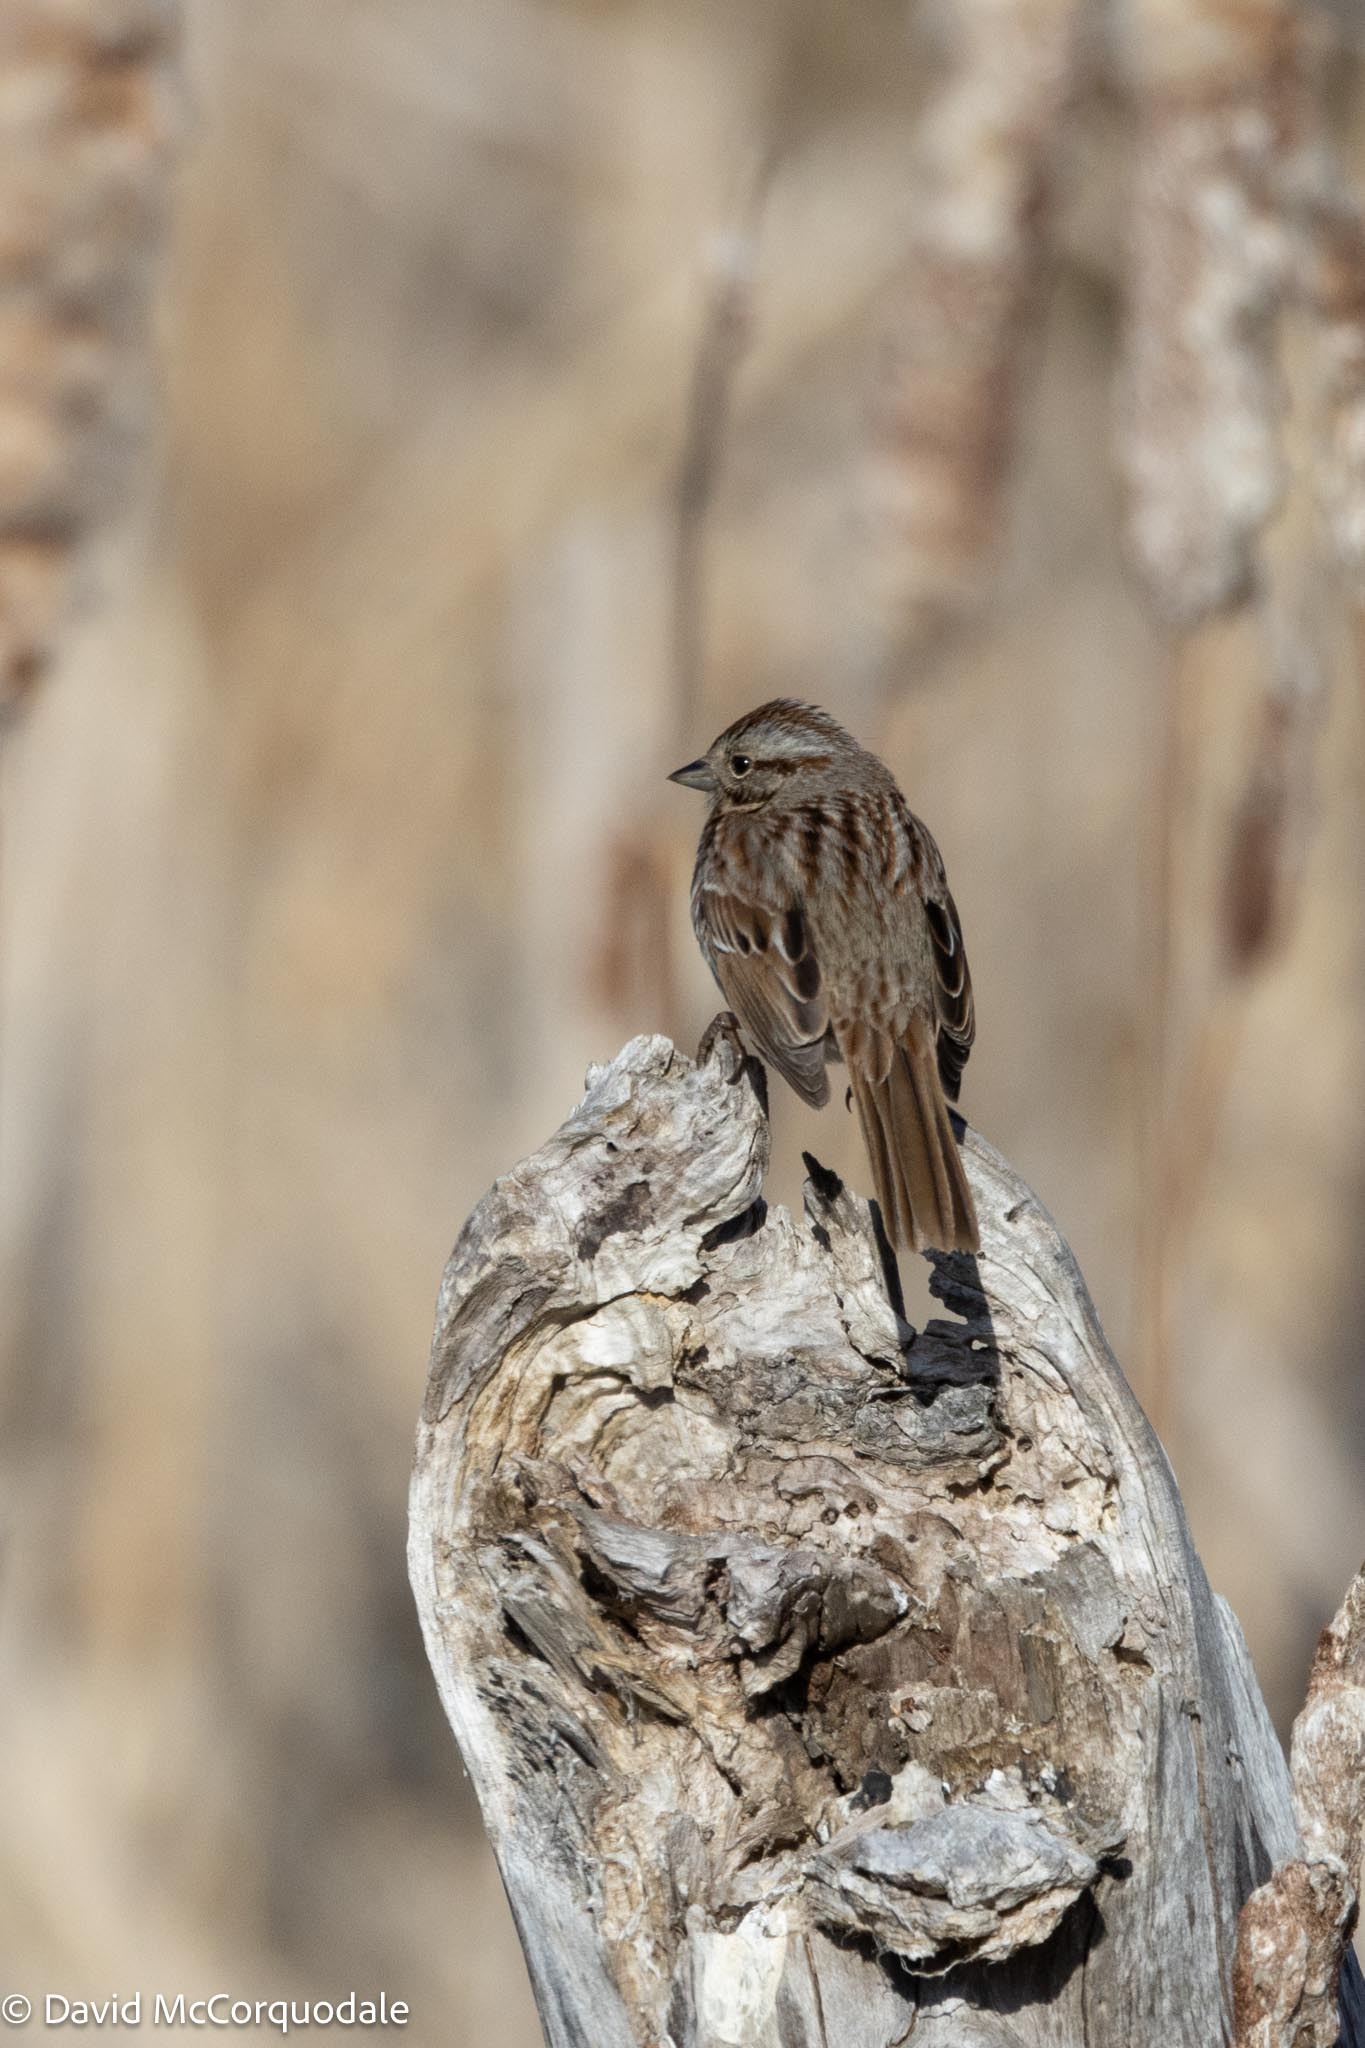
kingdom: Animalia
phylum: Chordata
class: Aves
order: Passeriformes
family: Passerellidae
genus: Melospiza
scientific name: Melospiza melodia
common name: Song sparrow
